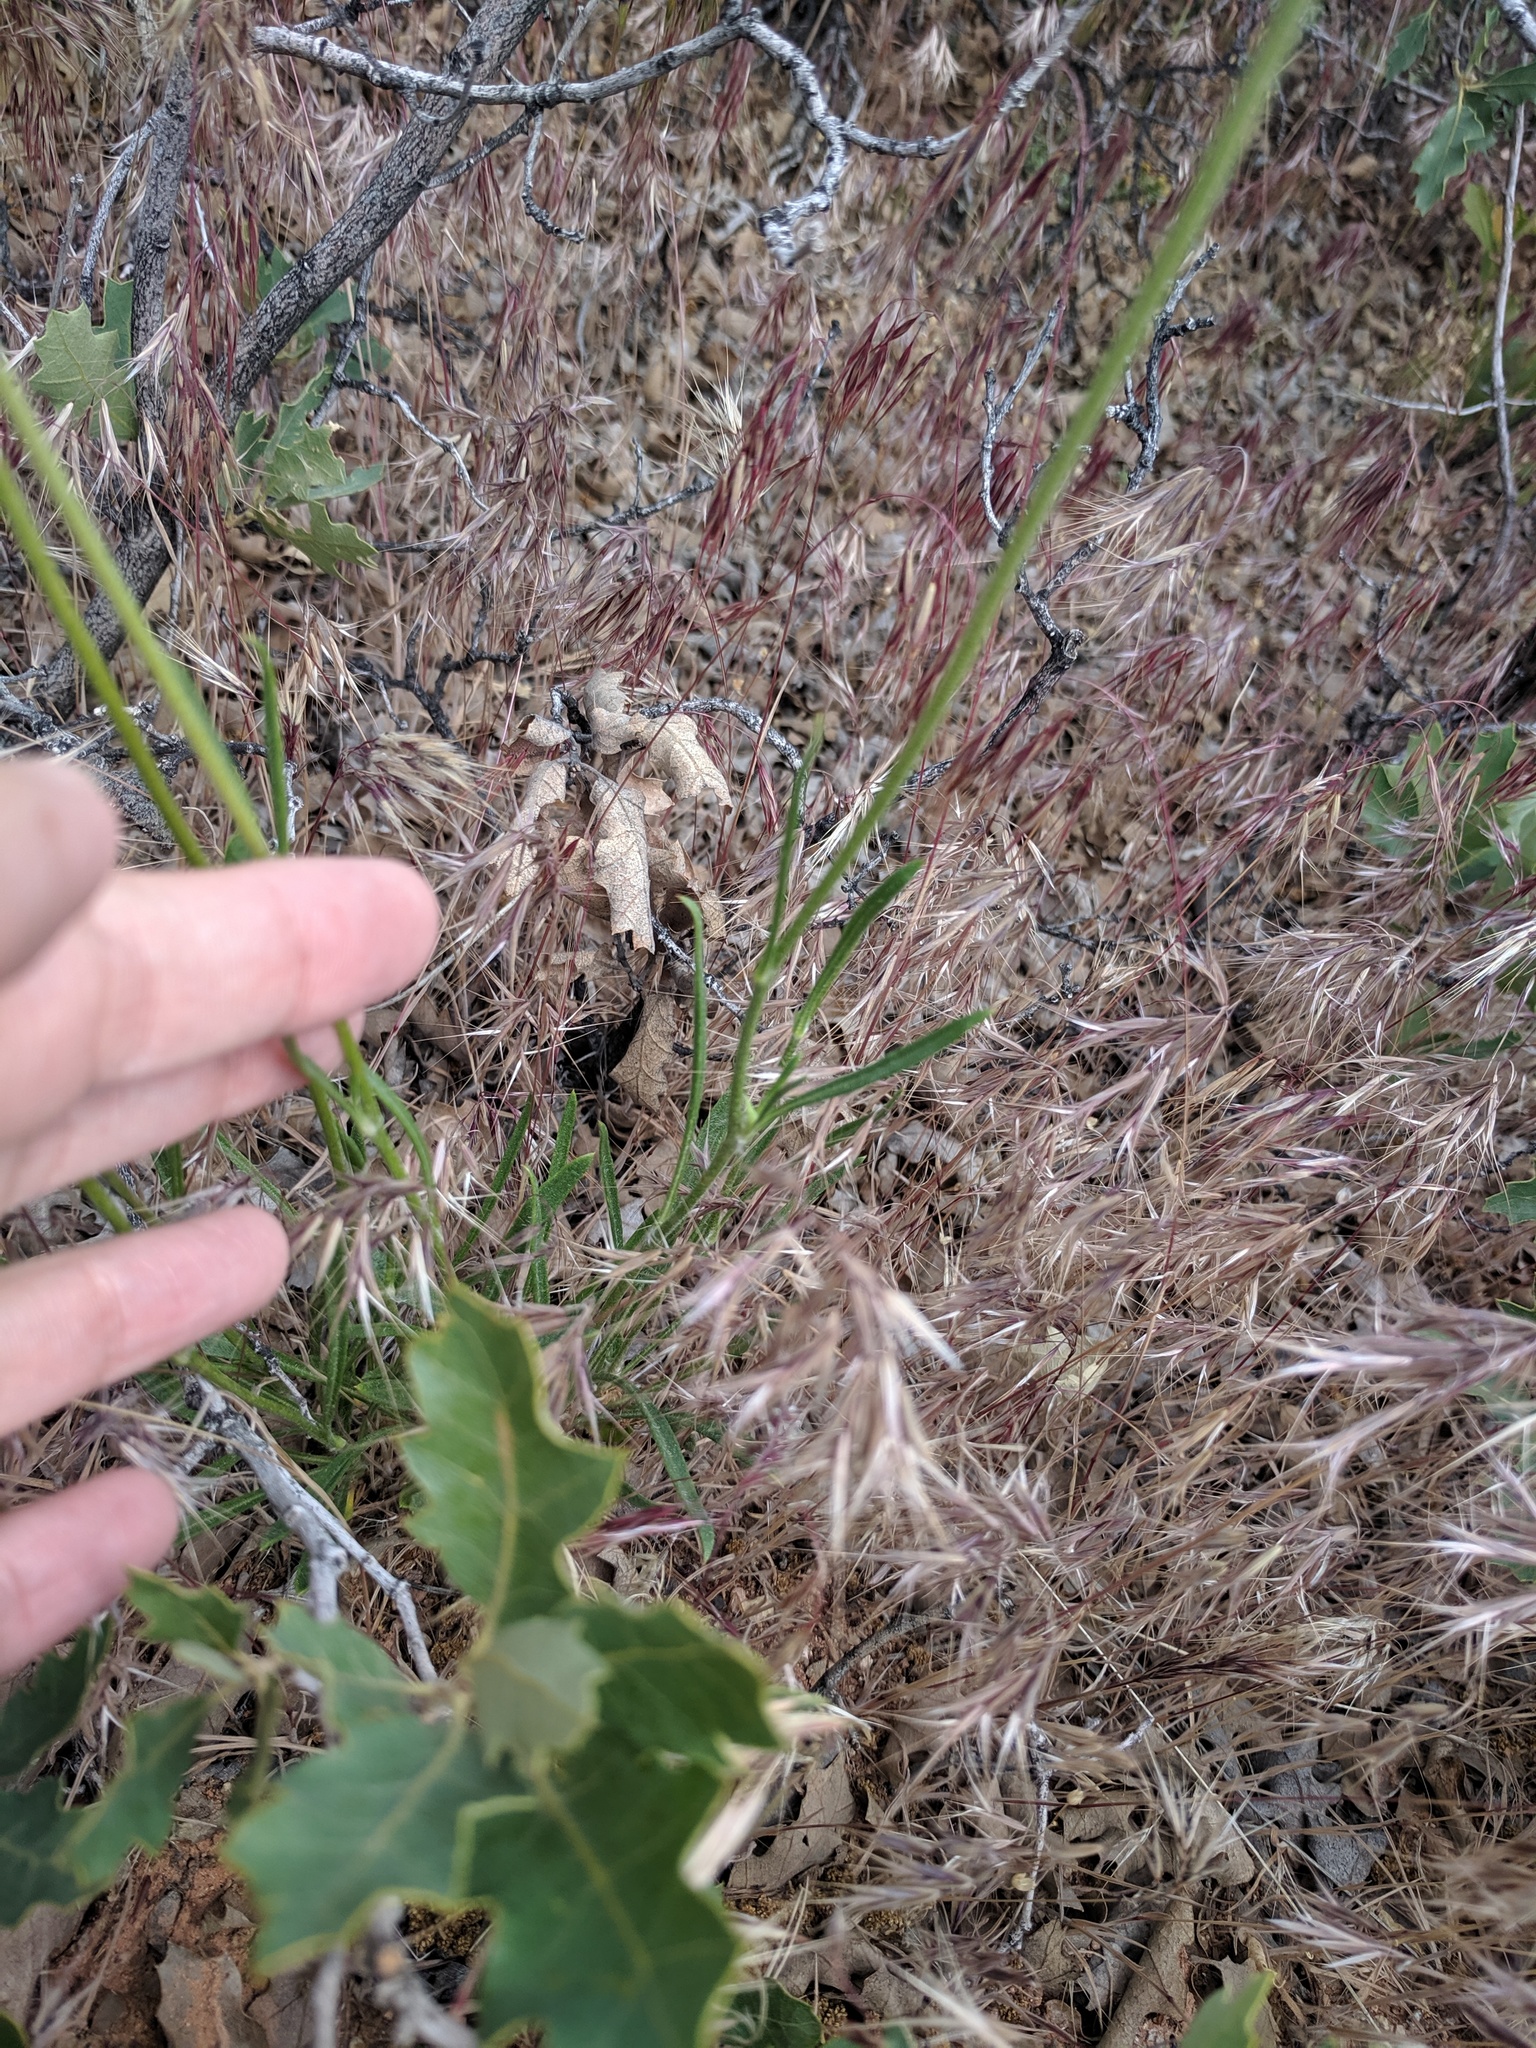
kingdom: Plantae
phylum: Tracheophyta
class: Magnoliopsida
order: Asterales
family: Asteraceae
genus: Tetraneuris
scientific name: Tetraneuris ivesiana
